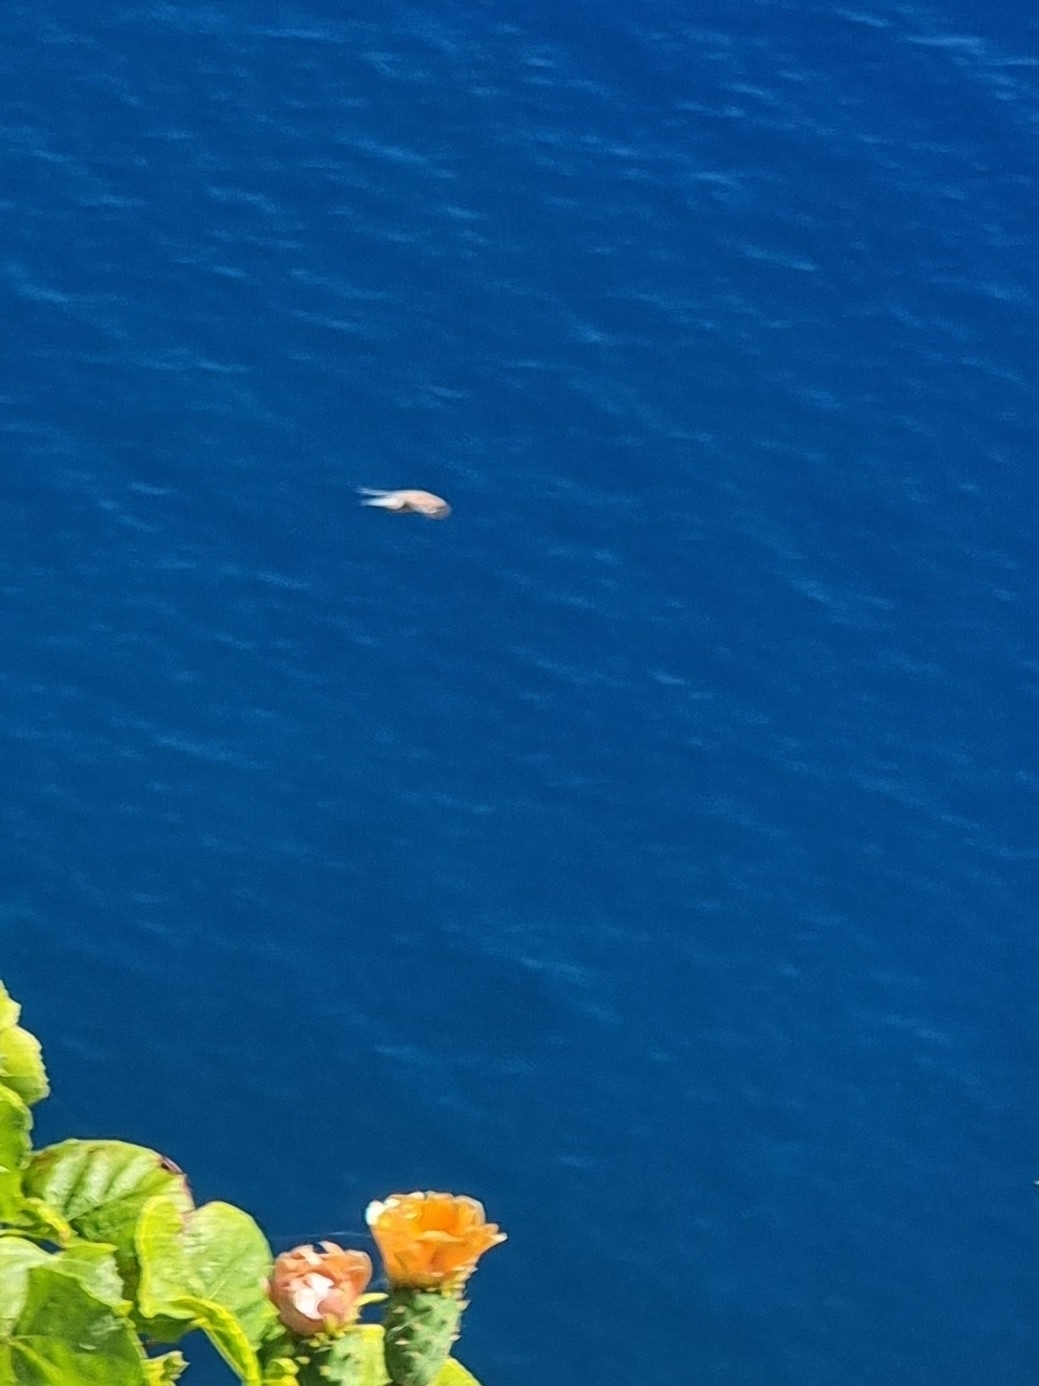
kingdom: Animalia
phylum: Chordata
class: Aves
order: Falconiformes
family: Falconidae
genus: Falco
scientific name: Falco tinnunculus
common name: Common kestrel
